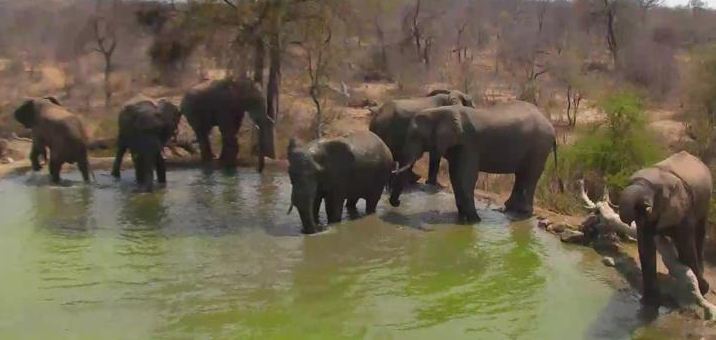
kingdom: Animalia
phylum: Chordata
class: Mammalia
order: Proboscidea
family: Elephantidae
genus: Loxodonta
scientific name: Loxodonta africana
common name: African elephant
